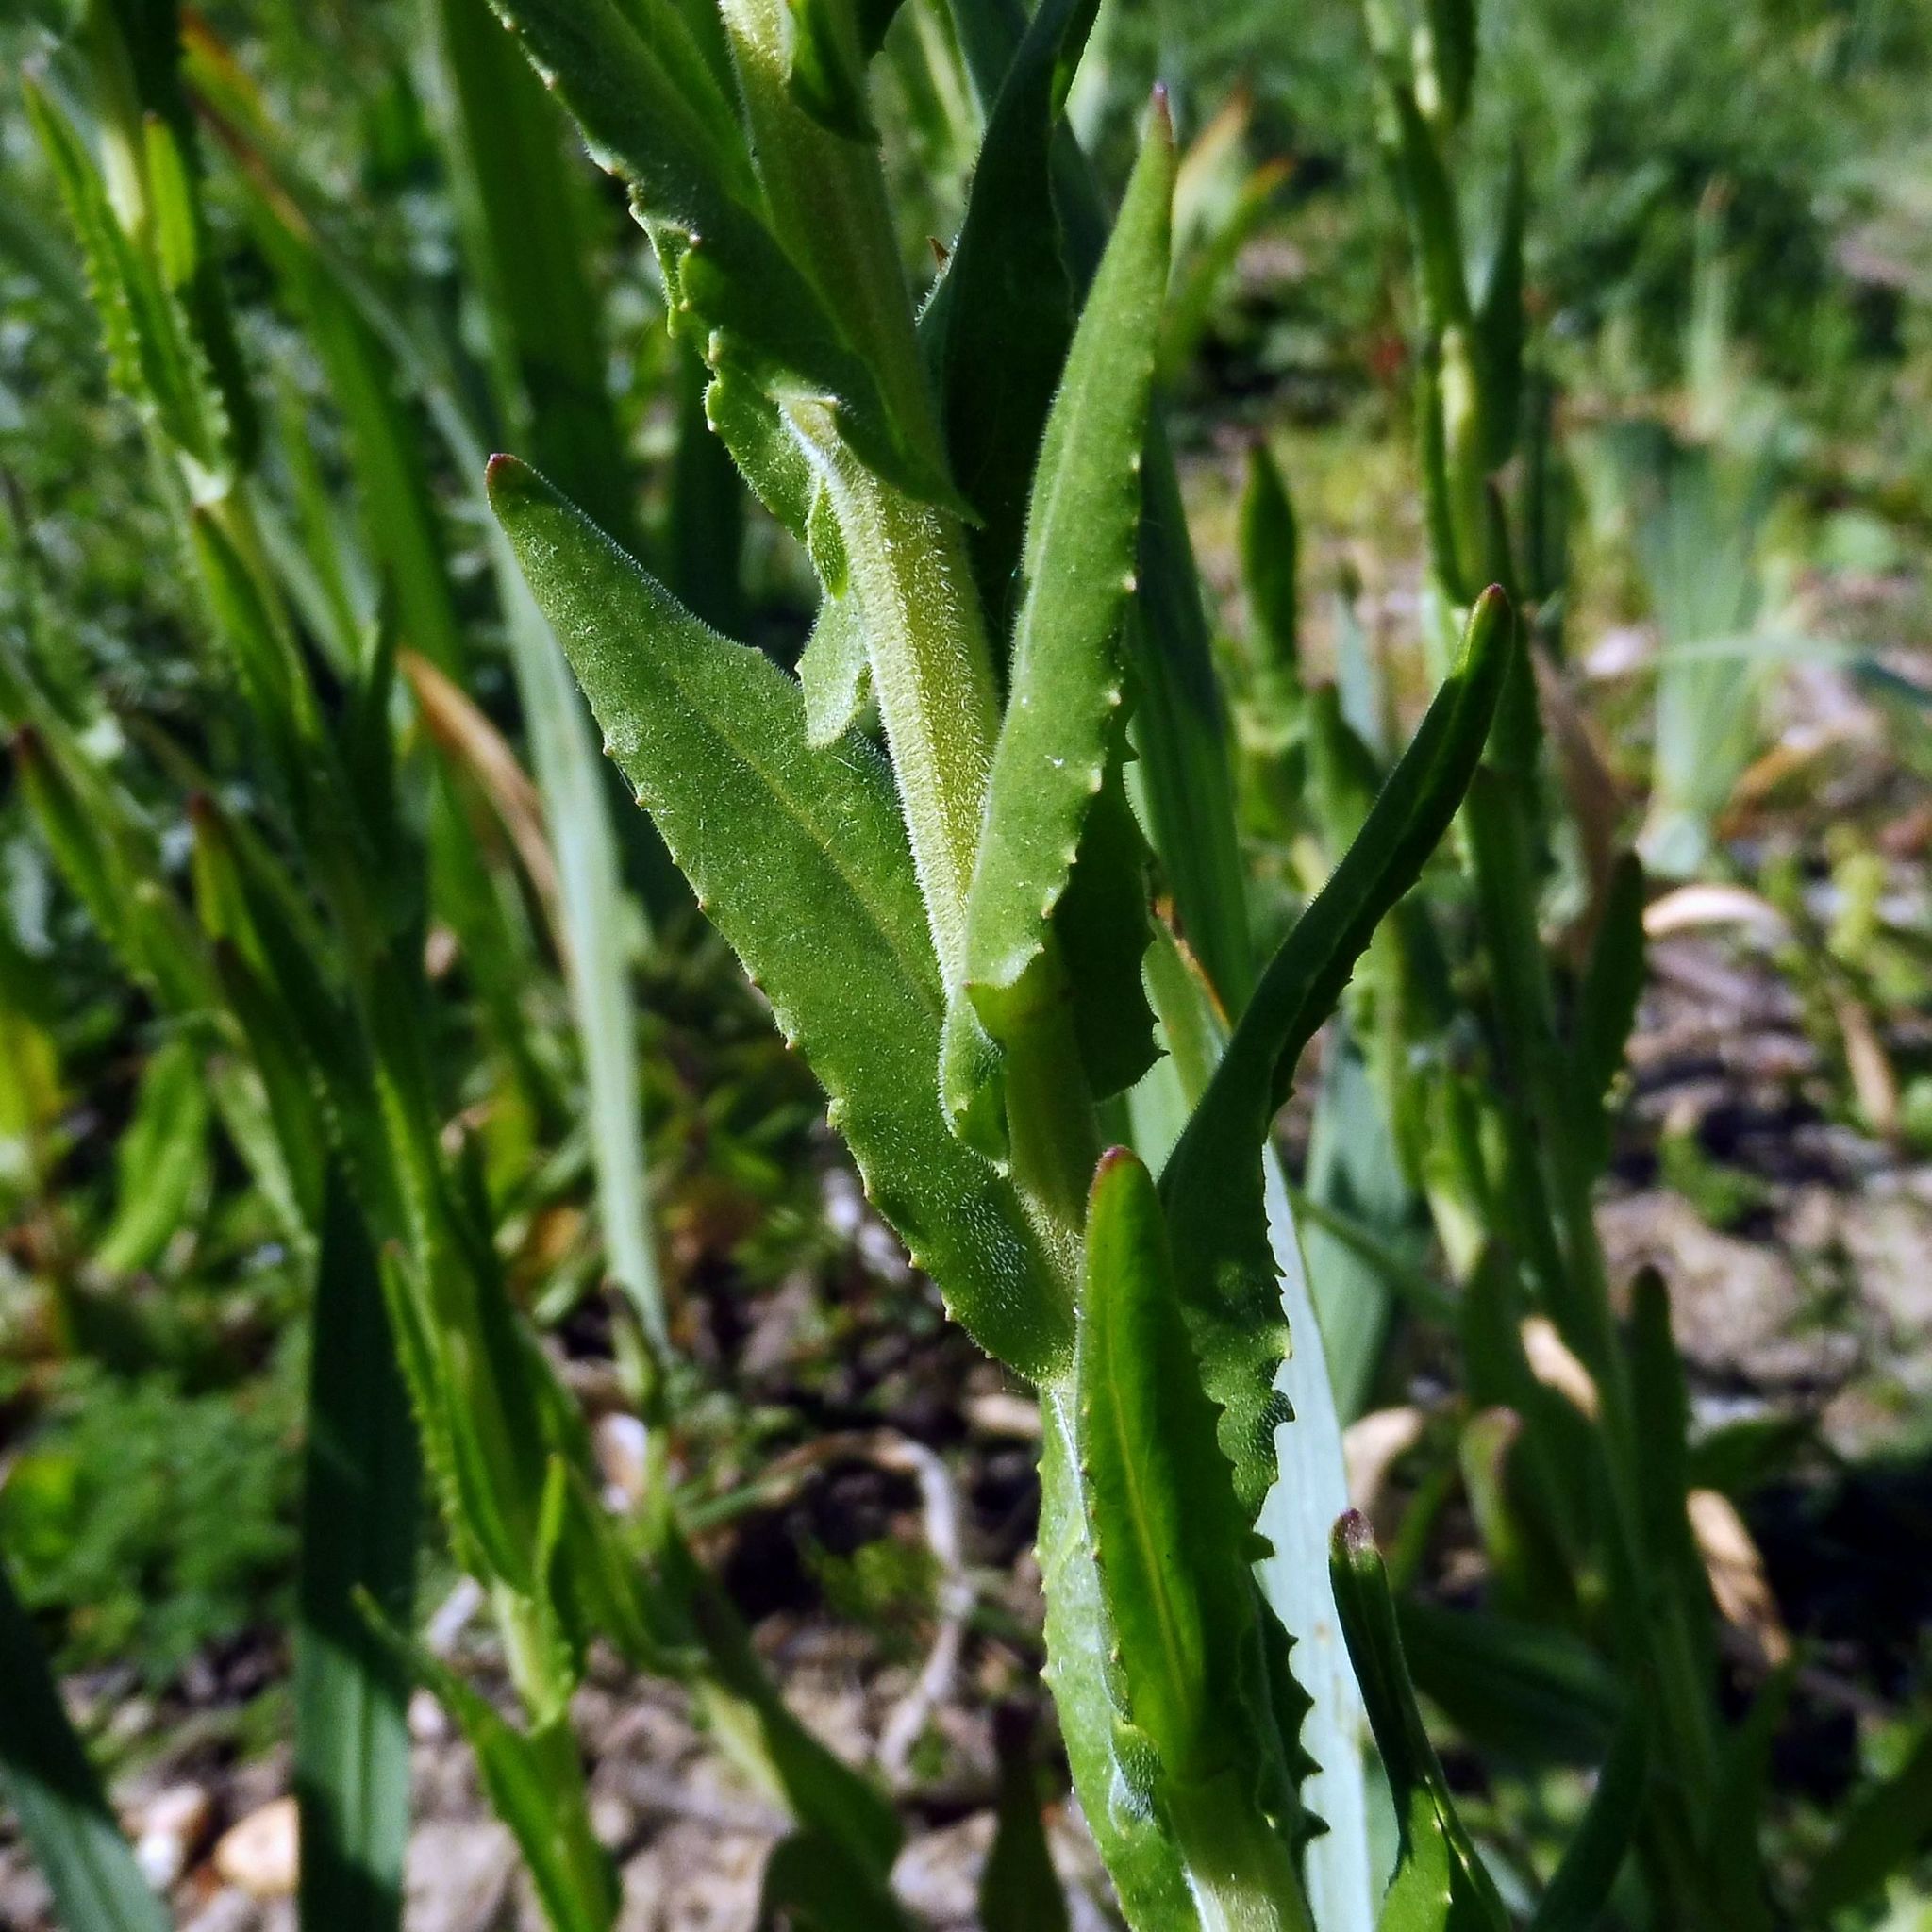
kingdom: Plantae
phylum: Tracheophyta
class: Magnoliopsida
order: Brassicales
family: Brassicaceae
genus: Lepidium
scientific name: Lepidium campestre
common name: Field pepperwort
